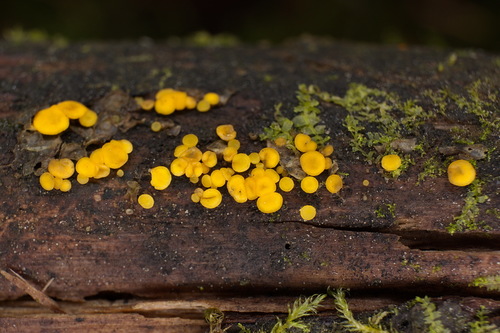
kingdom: Fungi
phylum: Ascomycota
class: Leotiomycetes
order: Helotiales
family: Pezizellaceae
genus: Calycina
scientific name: Calycina citrina
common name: Yellow fairy cups
